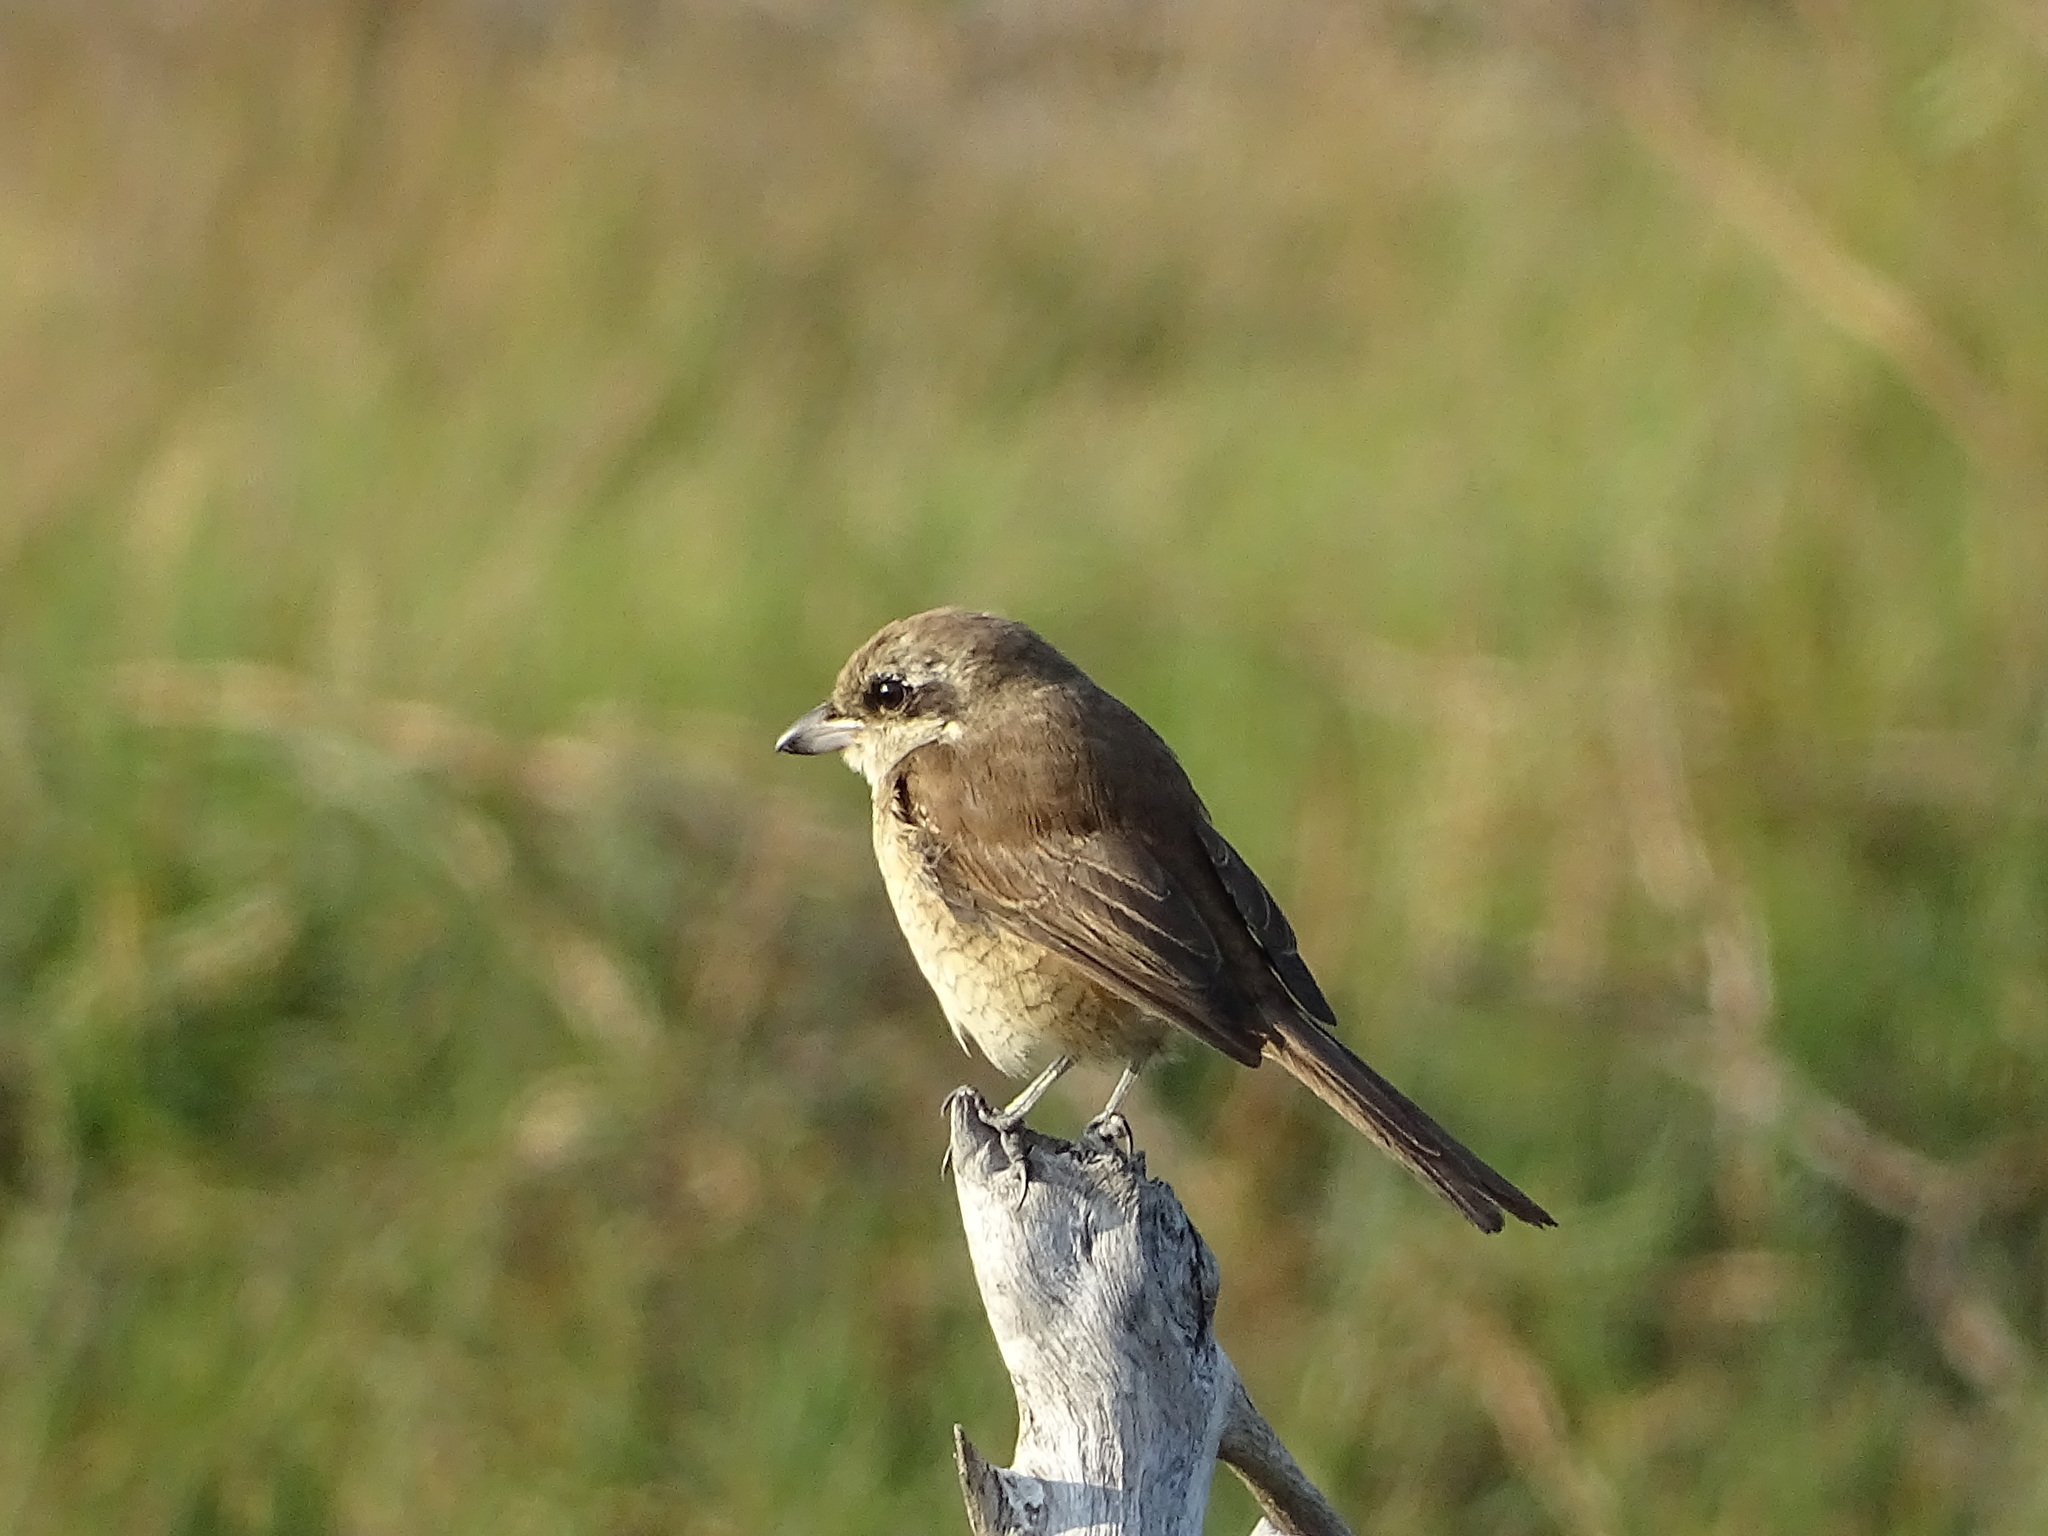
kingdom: Animalia
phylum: Chordata
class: Aves
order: Passeriformes
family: Laniidae
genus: Lanius
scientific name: Lanius cristatus
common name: Brown shrike
